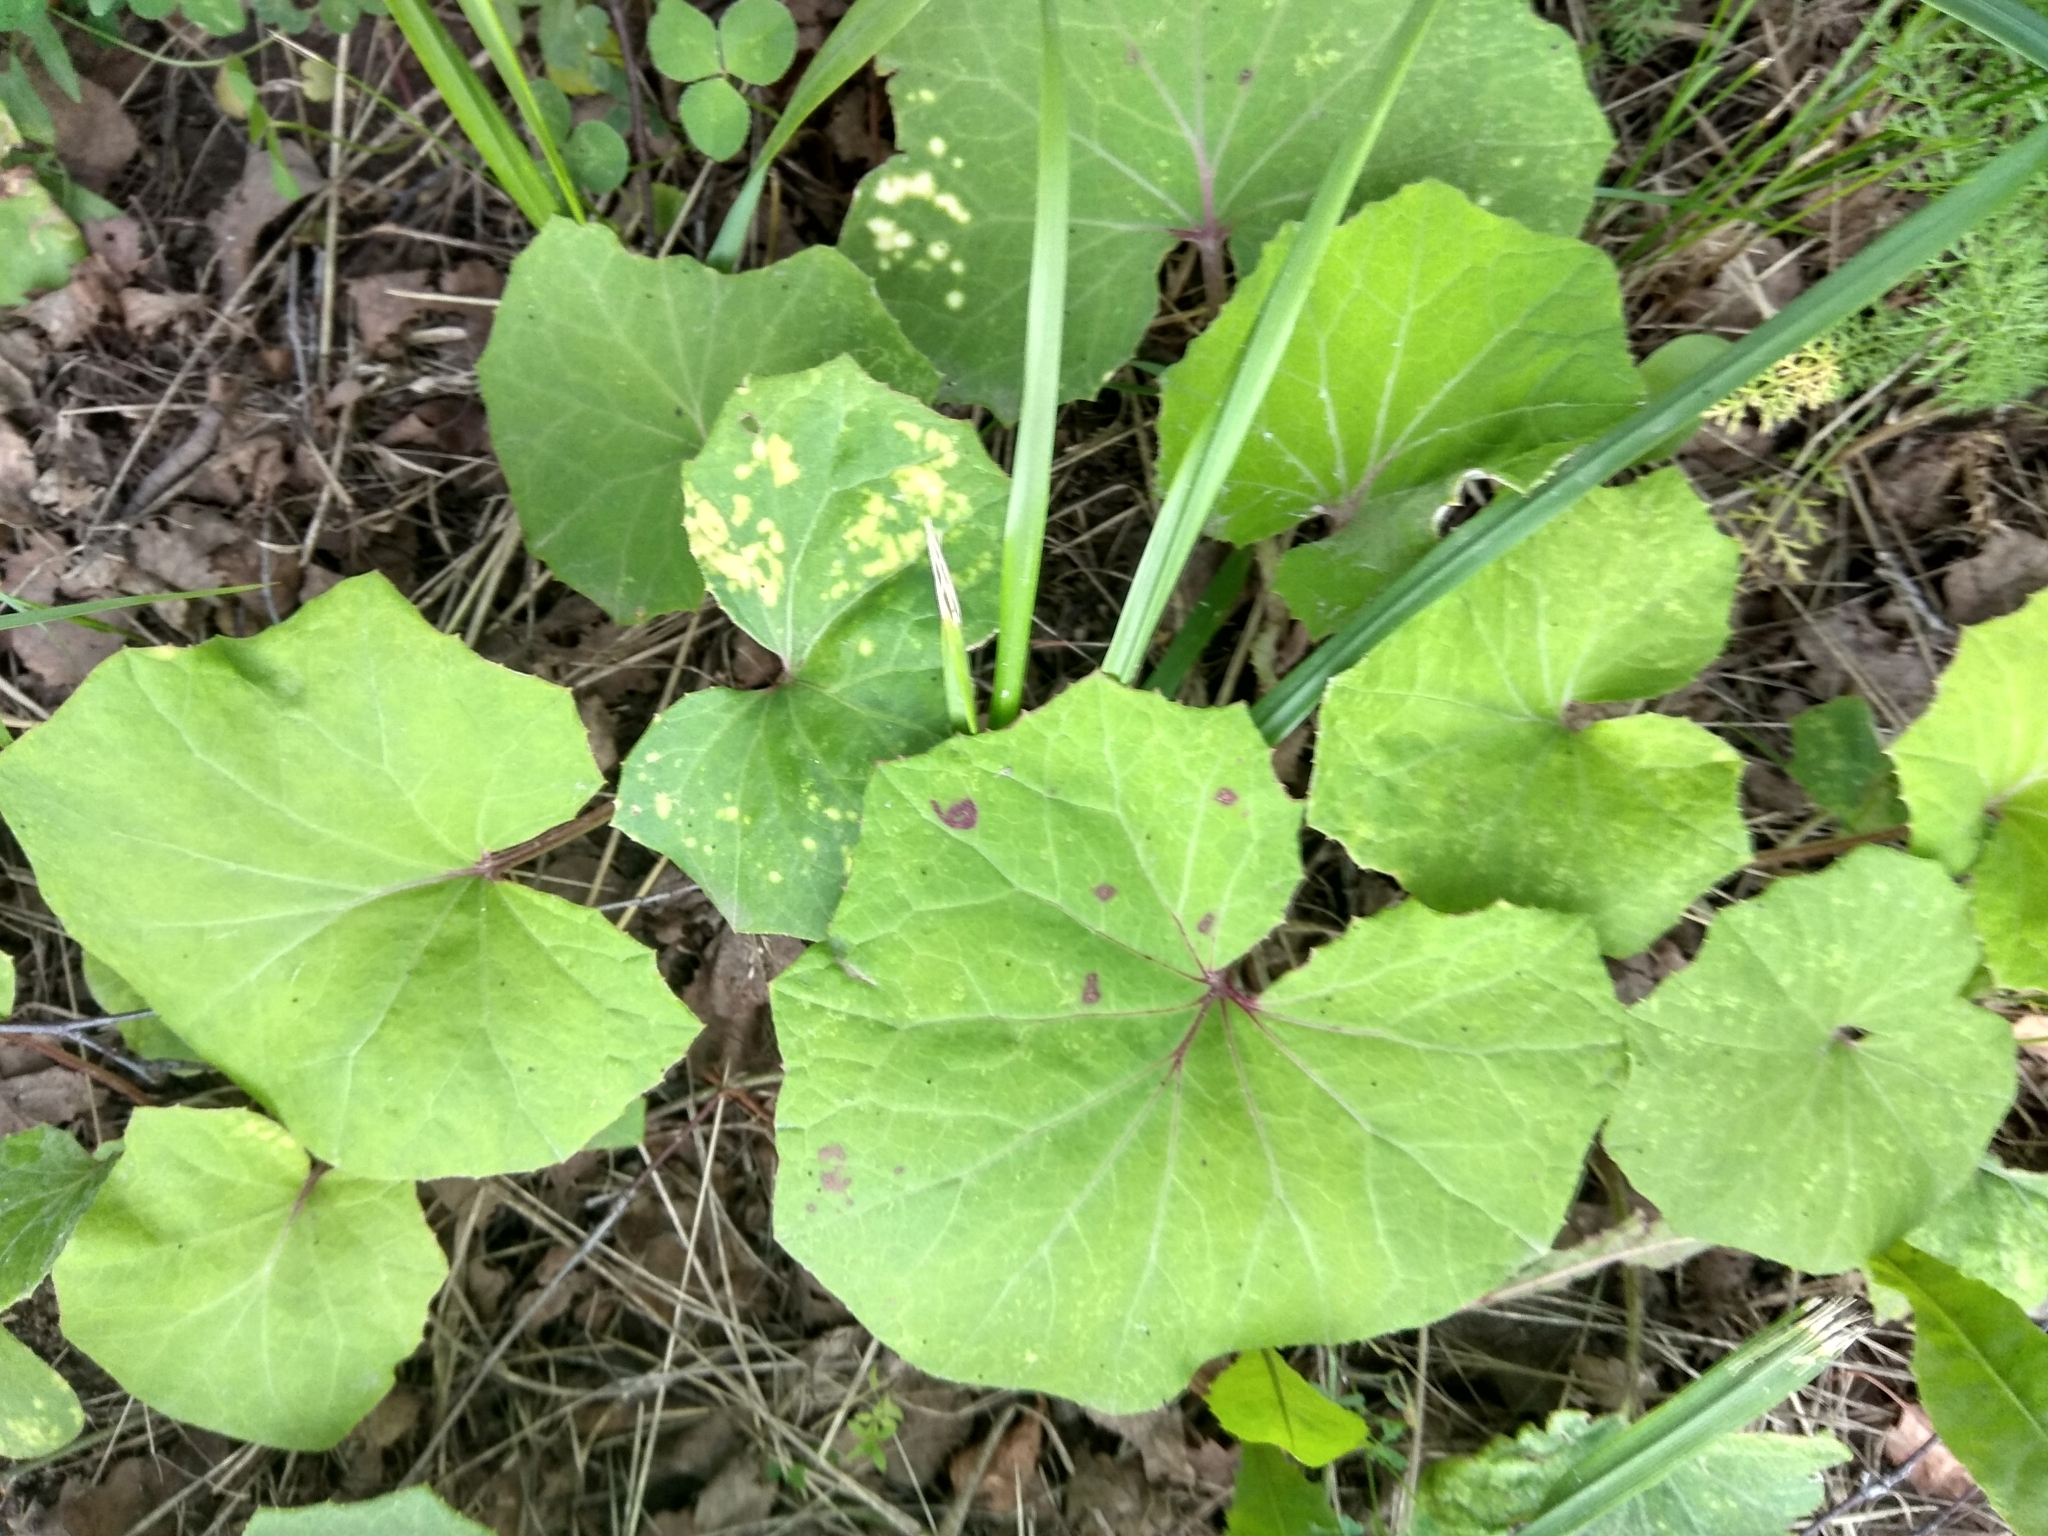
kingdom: Plantae
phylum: Tracheophyta
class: Magnoliopsida
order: Asterales
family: Asteraceae
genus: Tussilago
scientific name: Tussilago farfara
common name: Coltsfoot
